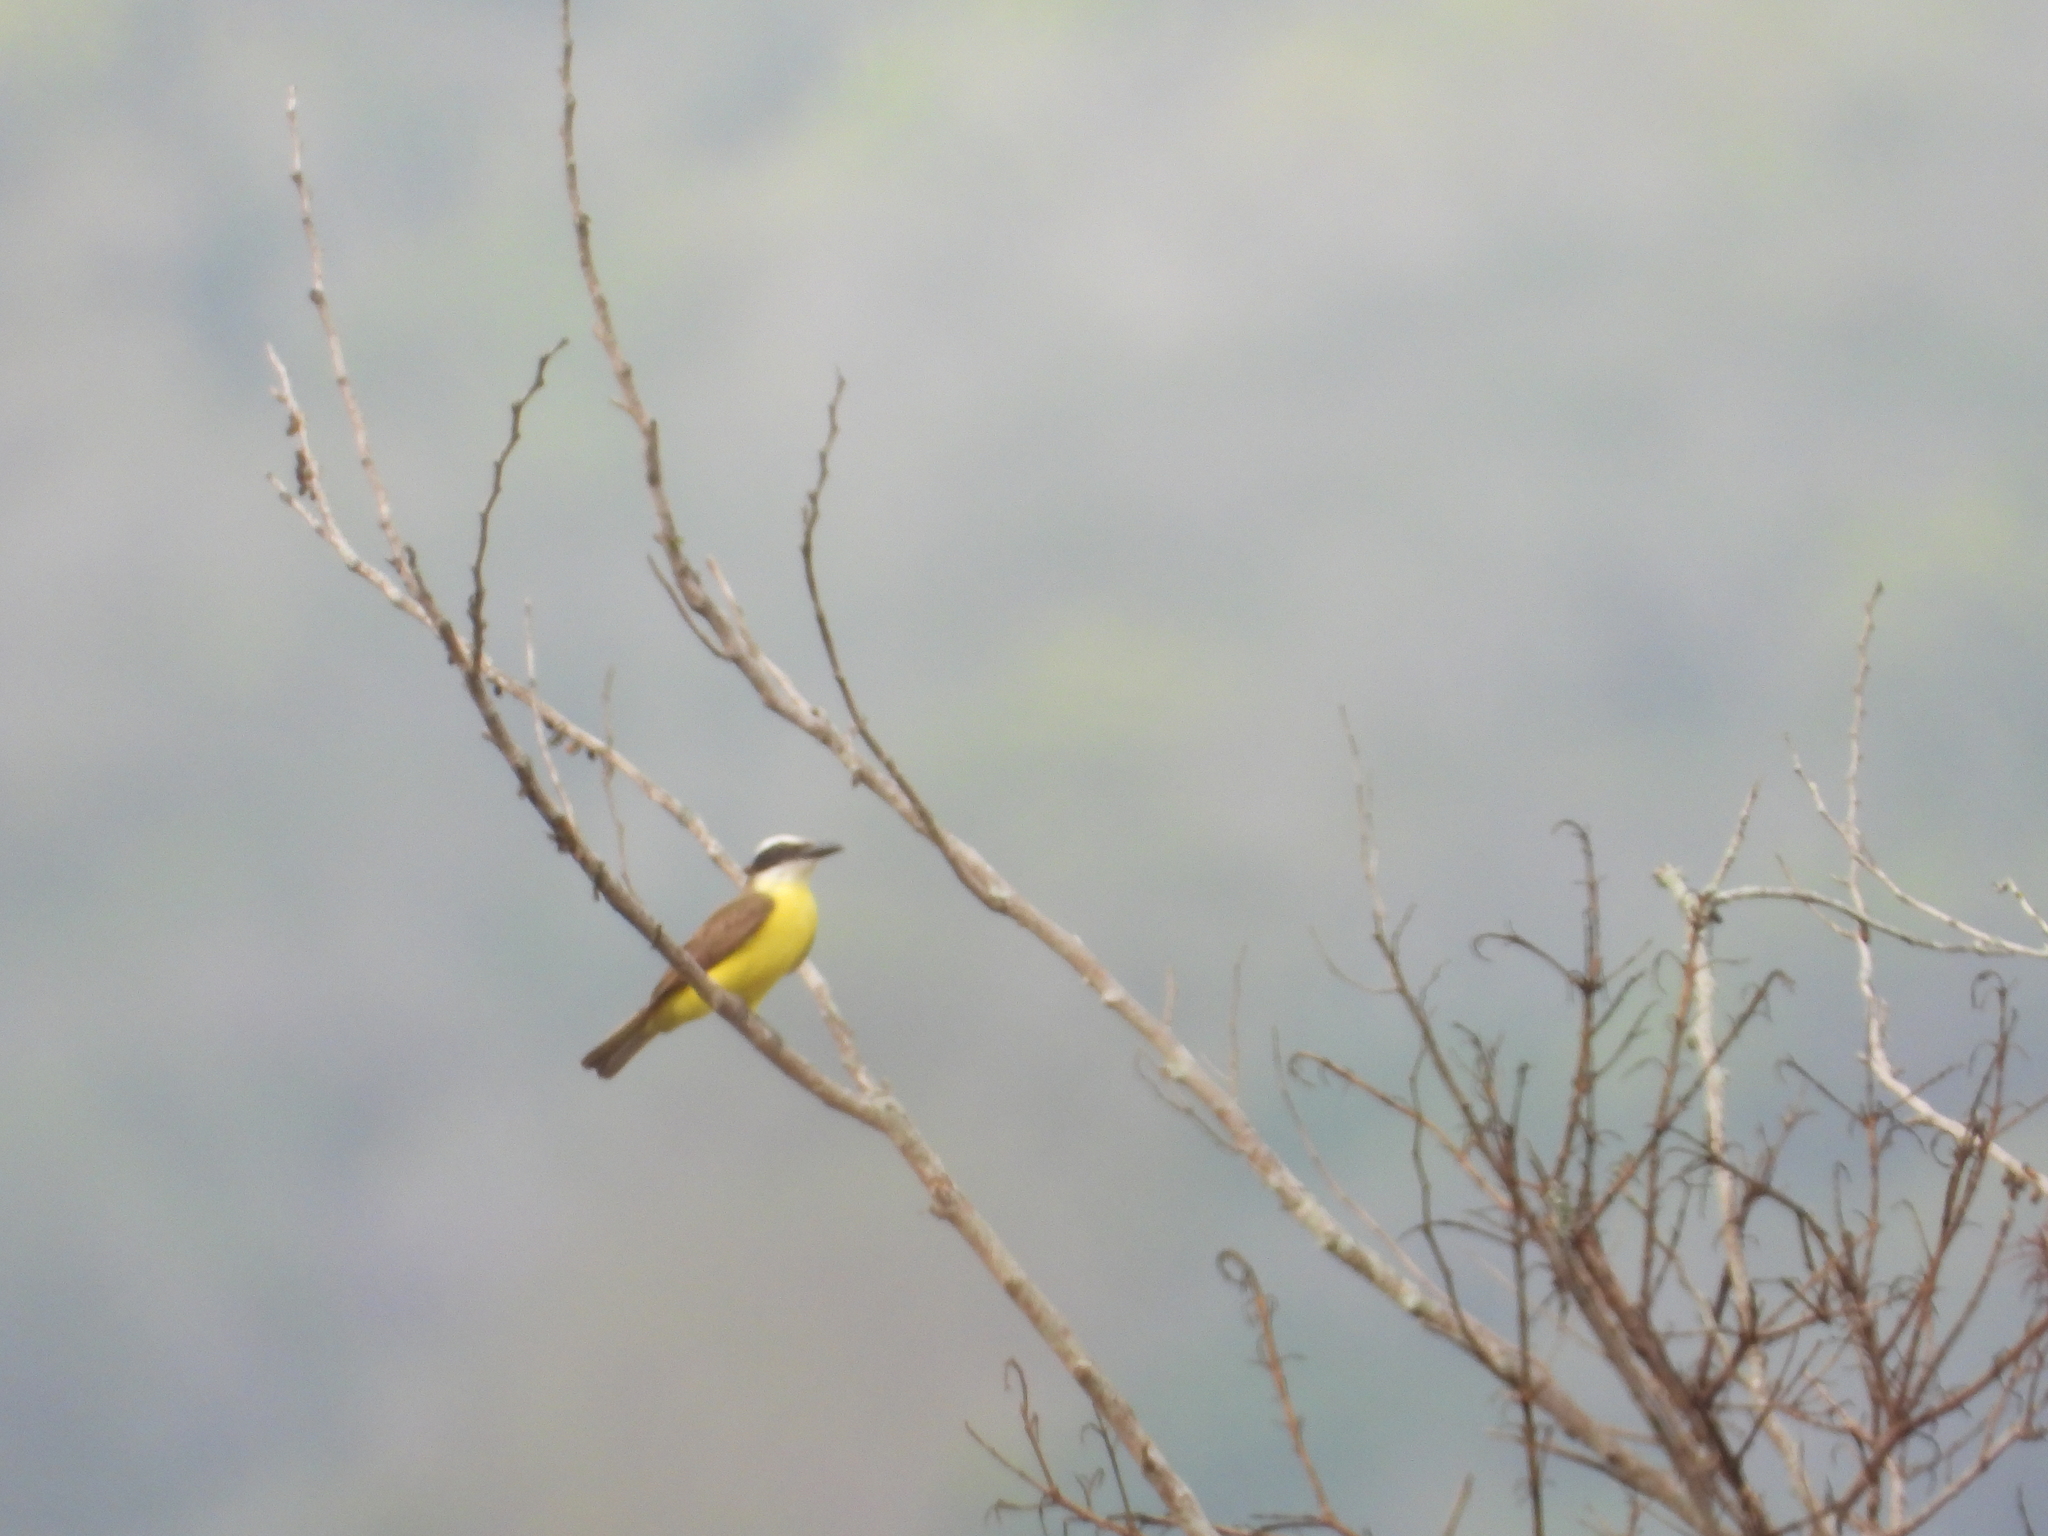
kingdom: Animalia
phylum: Chordata
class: Aves
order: Passeriformes
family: Tyrannidae
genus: Pitangus
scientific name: Pitangus sulphuratus
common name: Great kiskadee
